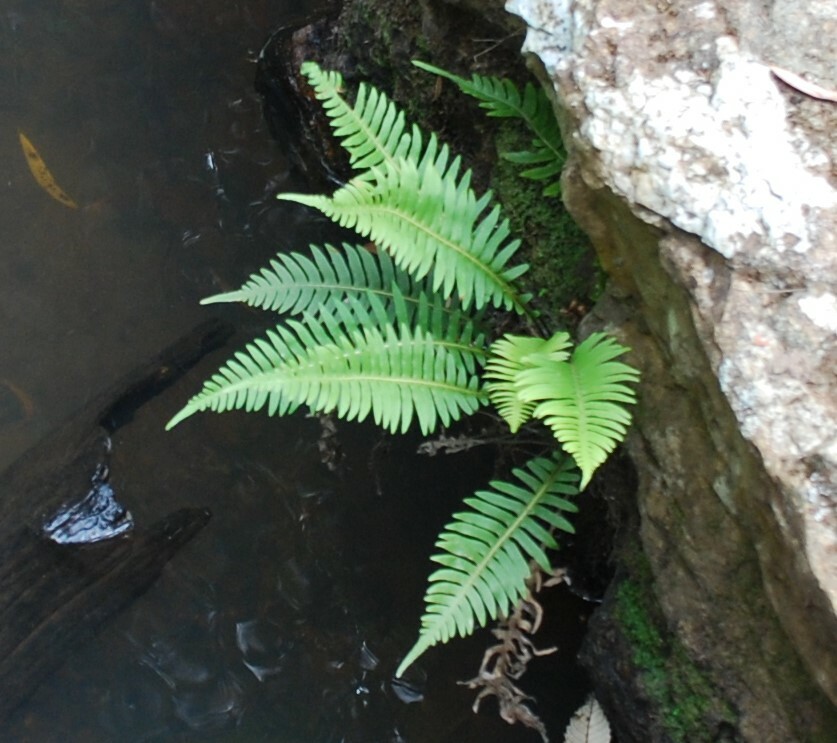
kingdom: Plantae
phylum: Tracheophyta
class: Polypodiopsida
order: Polypodiales
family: Blechnaceae
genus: Lomaria
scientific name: Lomaria nuda
